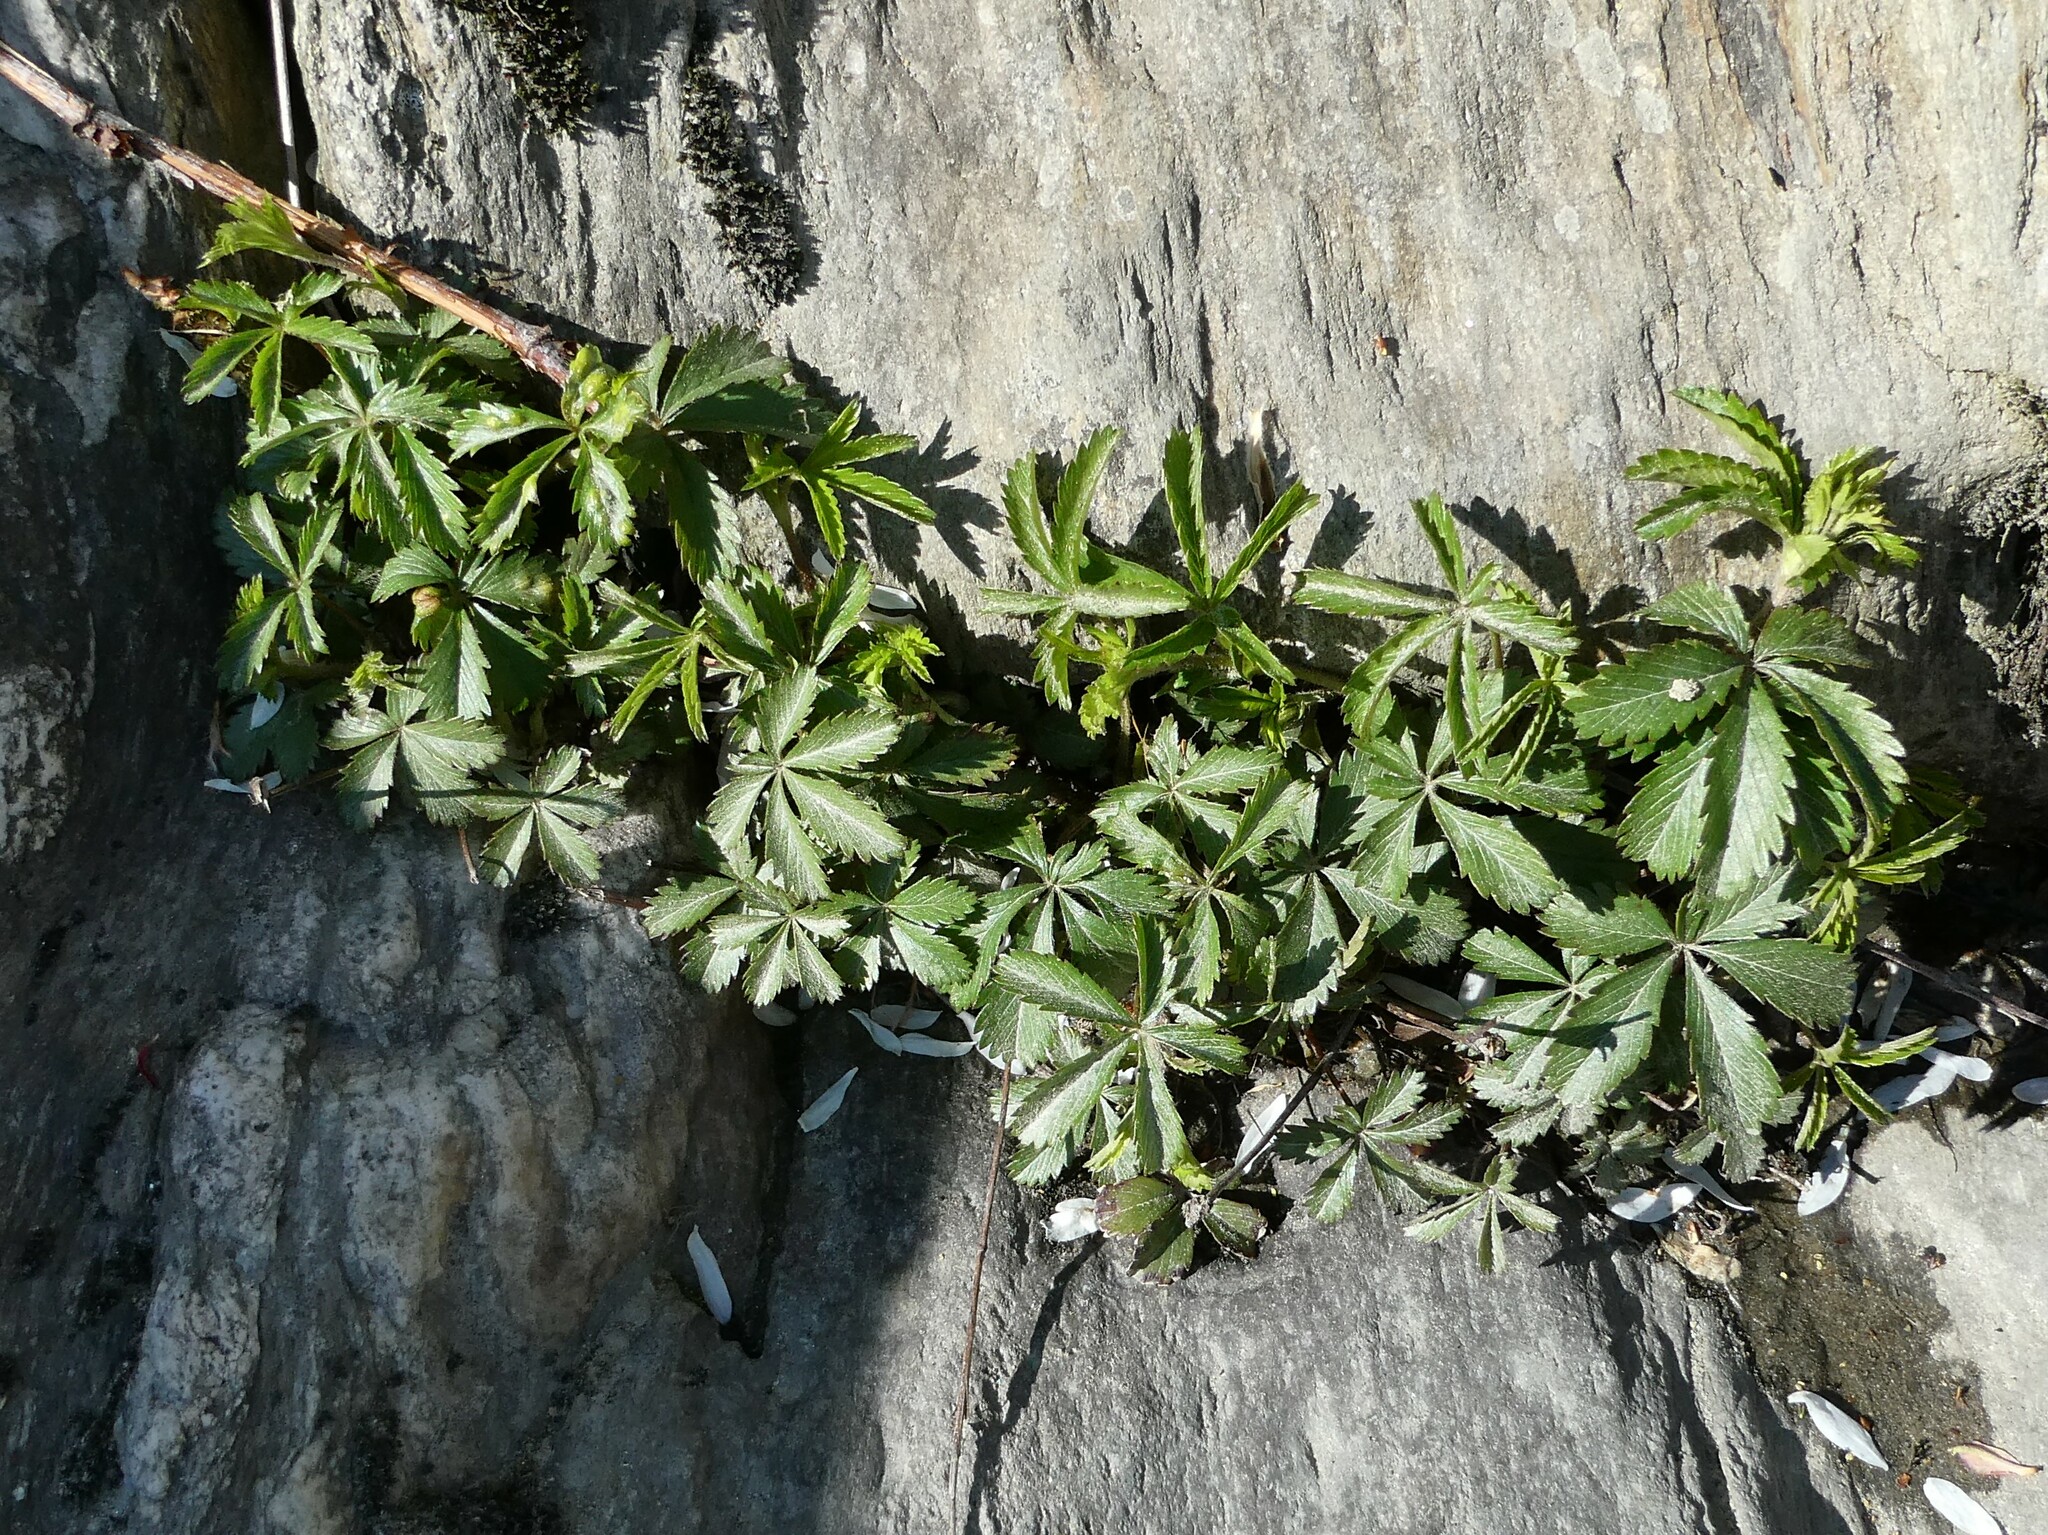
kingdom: Fungi
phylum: Ascomycota
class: Taphrinomycetes
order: Taphrinales
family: Taphrinaceae
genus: Taphrina
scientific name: Taphrina
